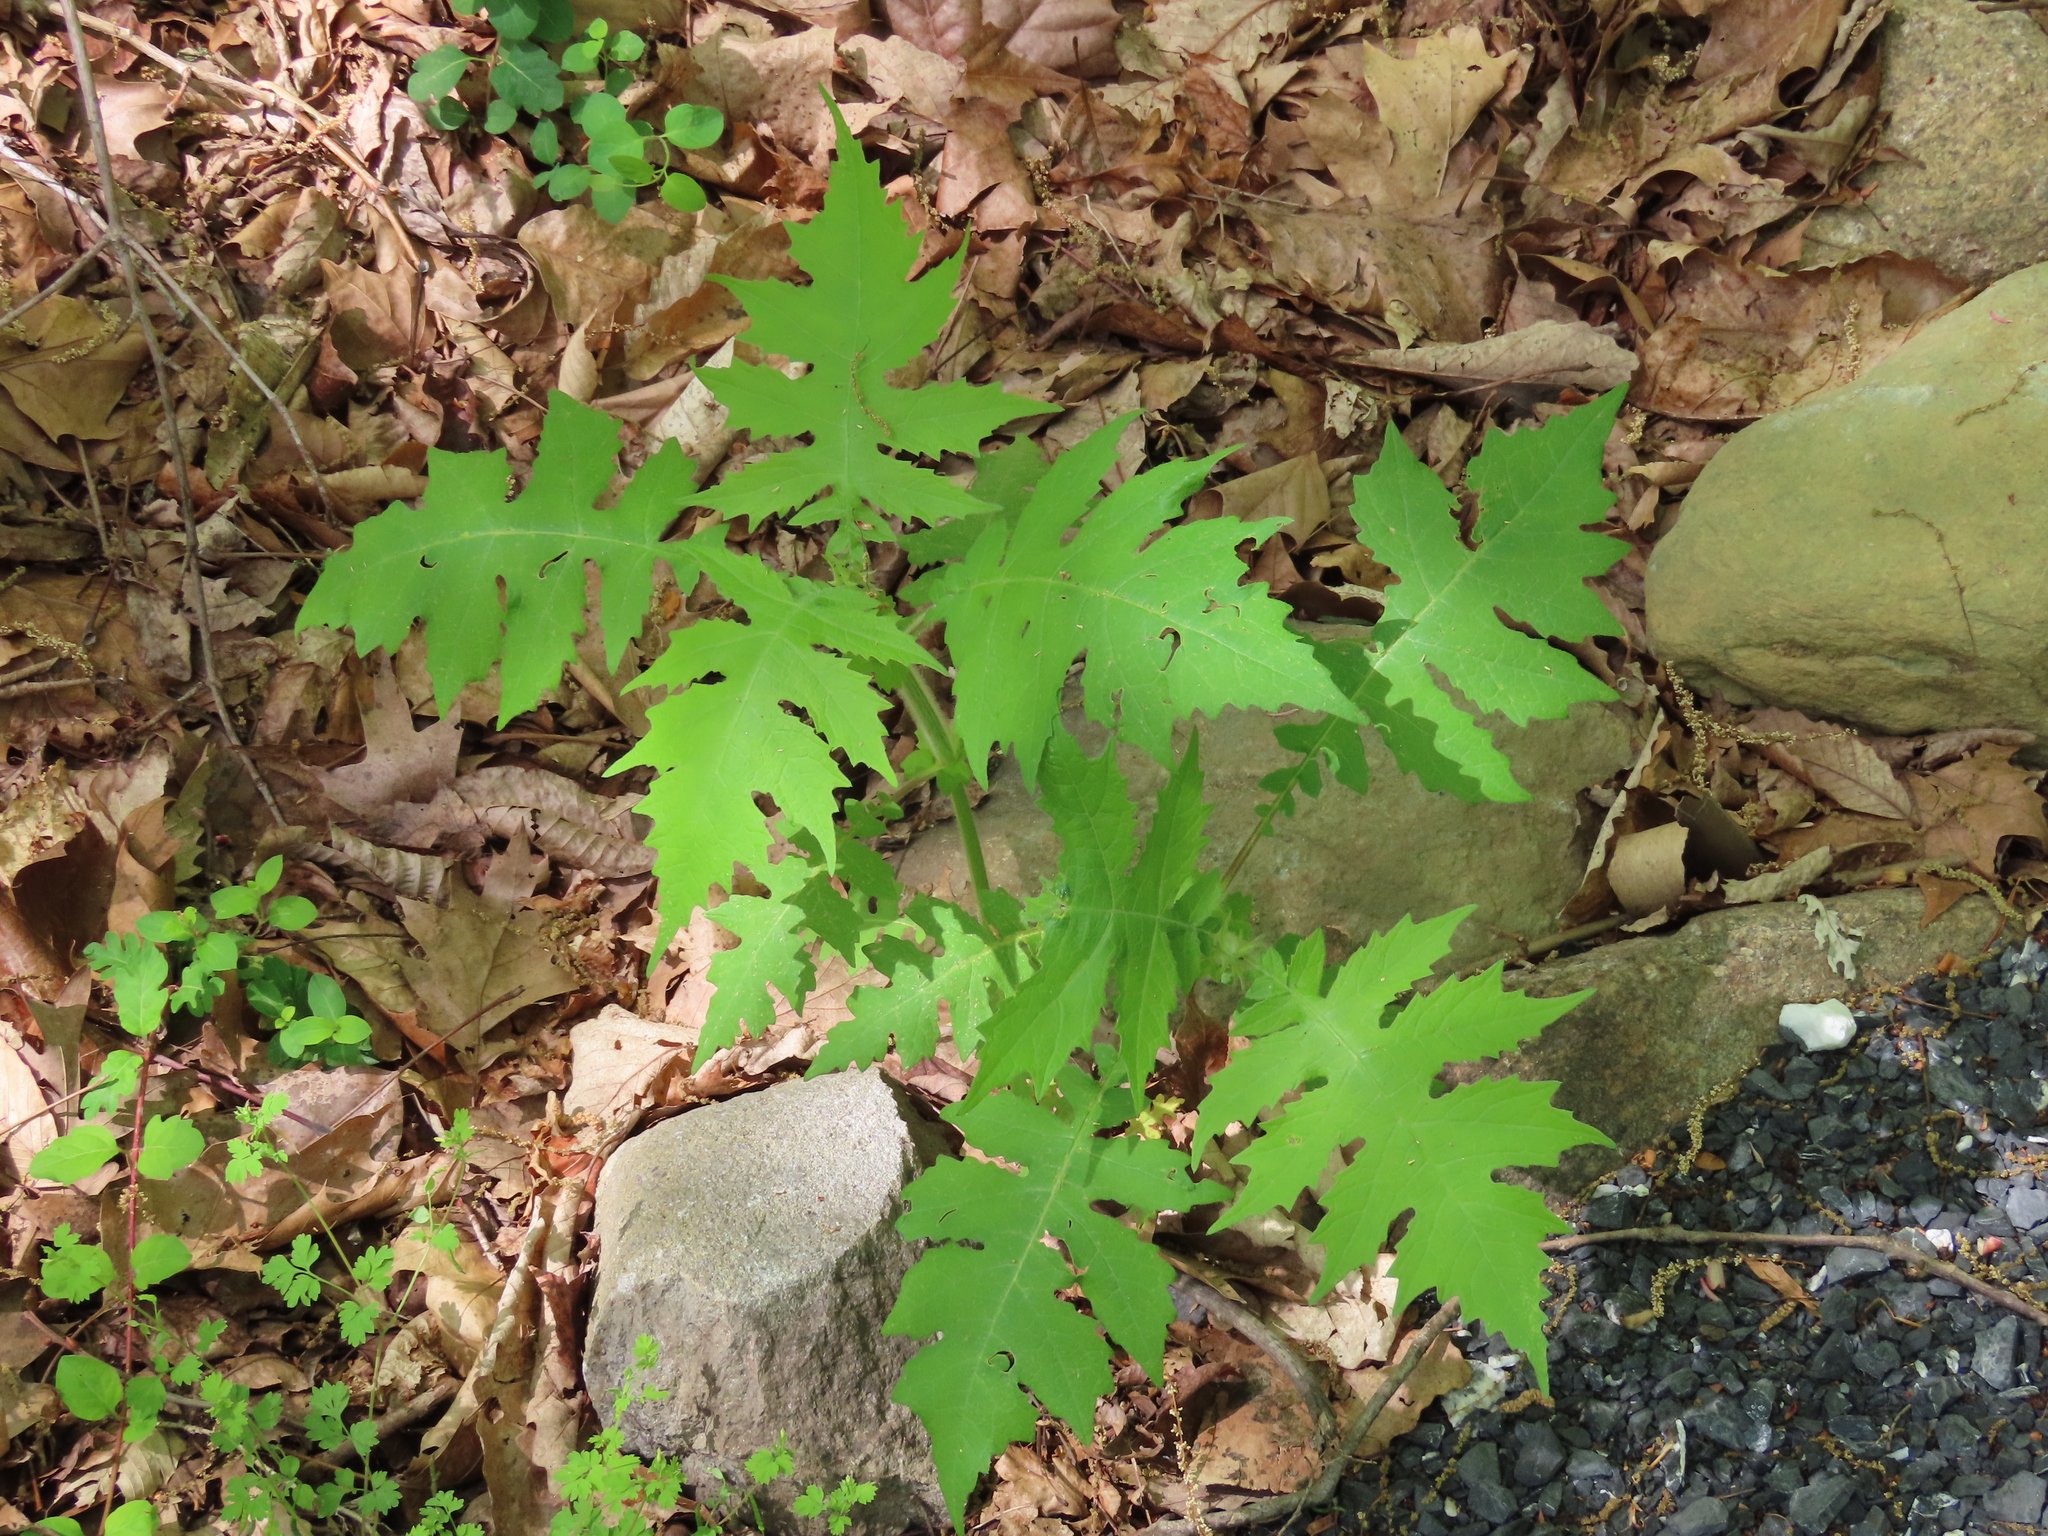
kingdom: Plantae
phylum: Tracheophyta
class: Magnoliopsida
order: Asterales
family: Asteraceae
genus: Polymnia
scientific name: Polymnia canadensis
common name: Pale-flowered leafcup
